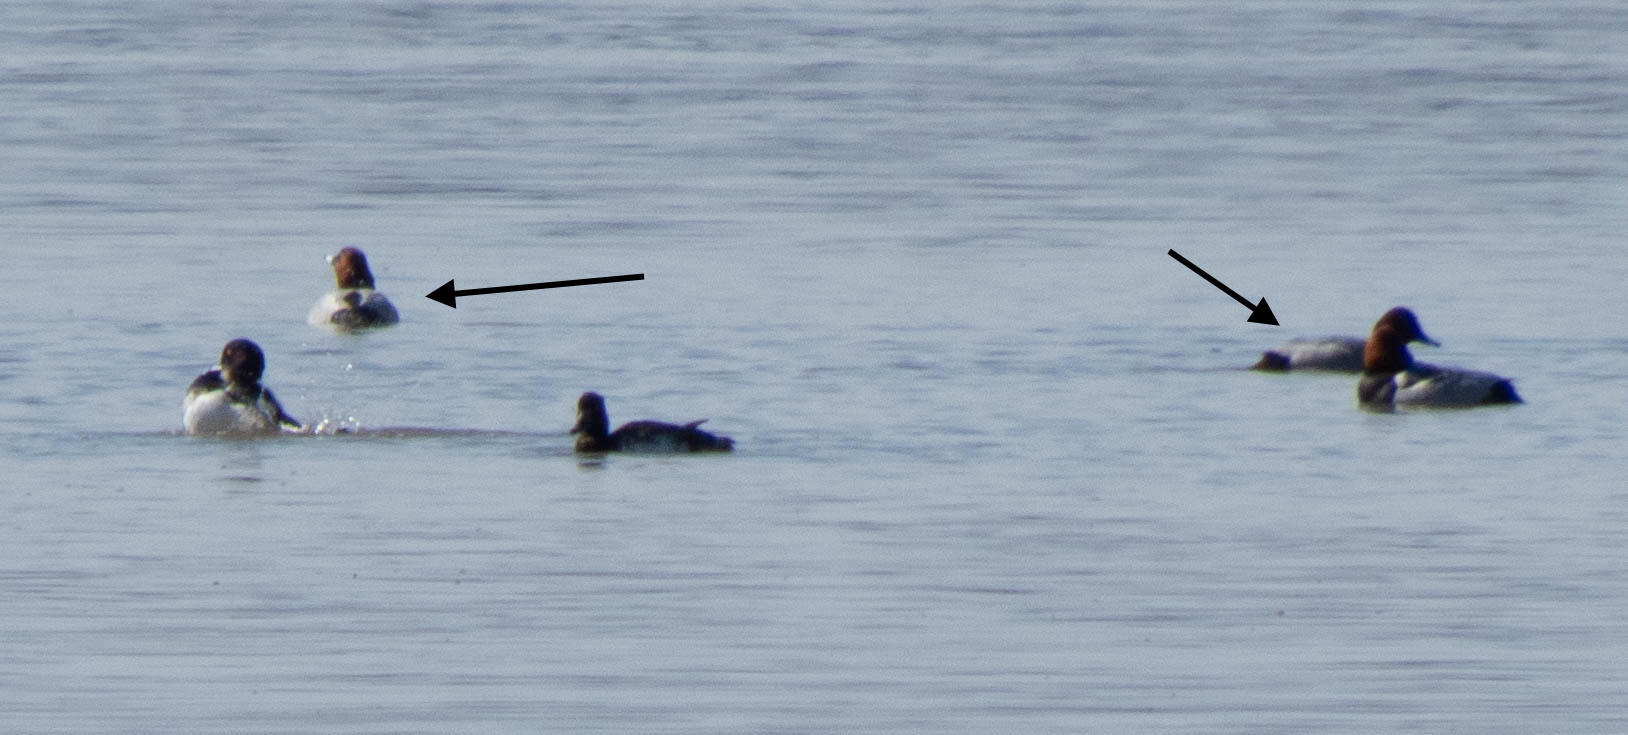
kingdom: Animalia
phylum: Chordata
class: Aves
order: Anseriformes
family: Anatidae
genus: Aythya
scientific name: Aythya ferina
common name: Common pochard
